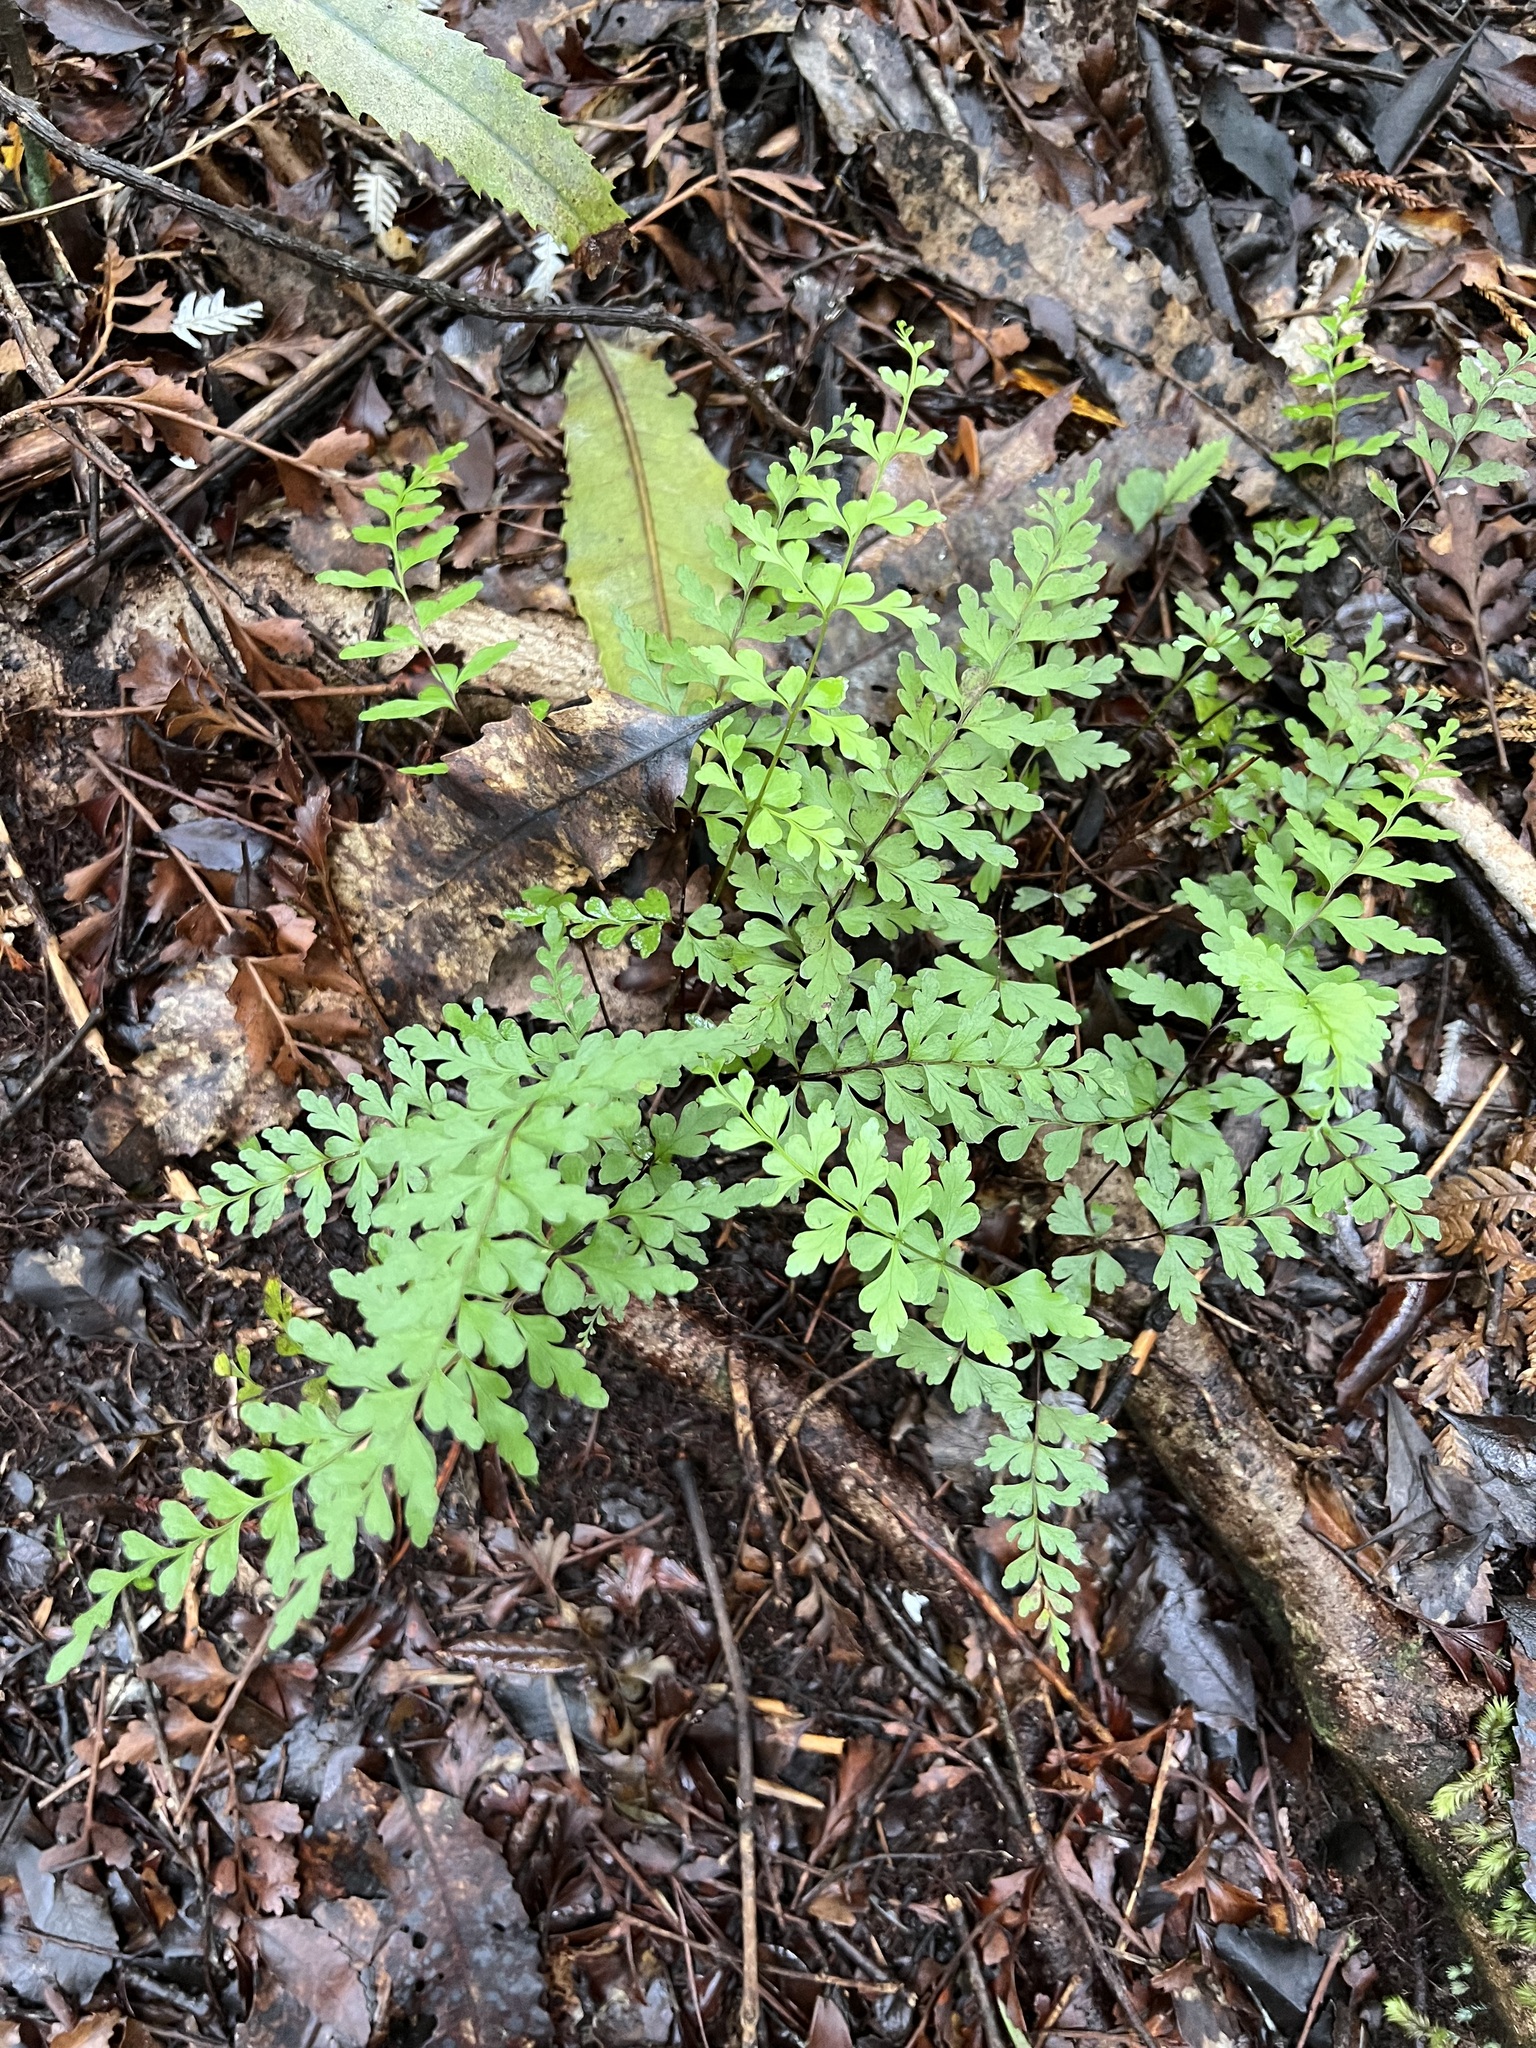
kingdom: Plantae
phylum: Tracheophyta
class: Polypodiopsida
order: Polypodiales
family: Lindsaeaceae
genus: Lindsaea
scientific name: Lindsaea trichomanoides
